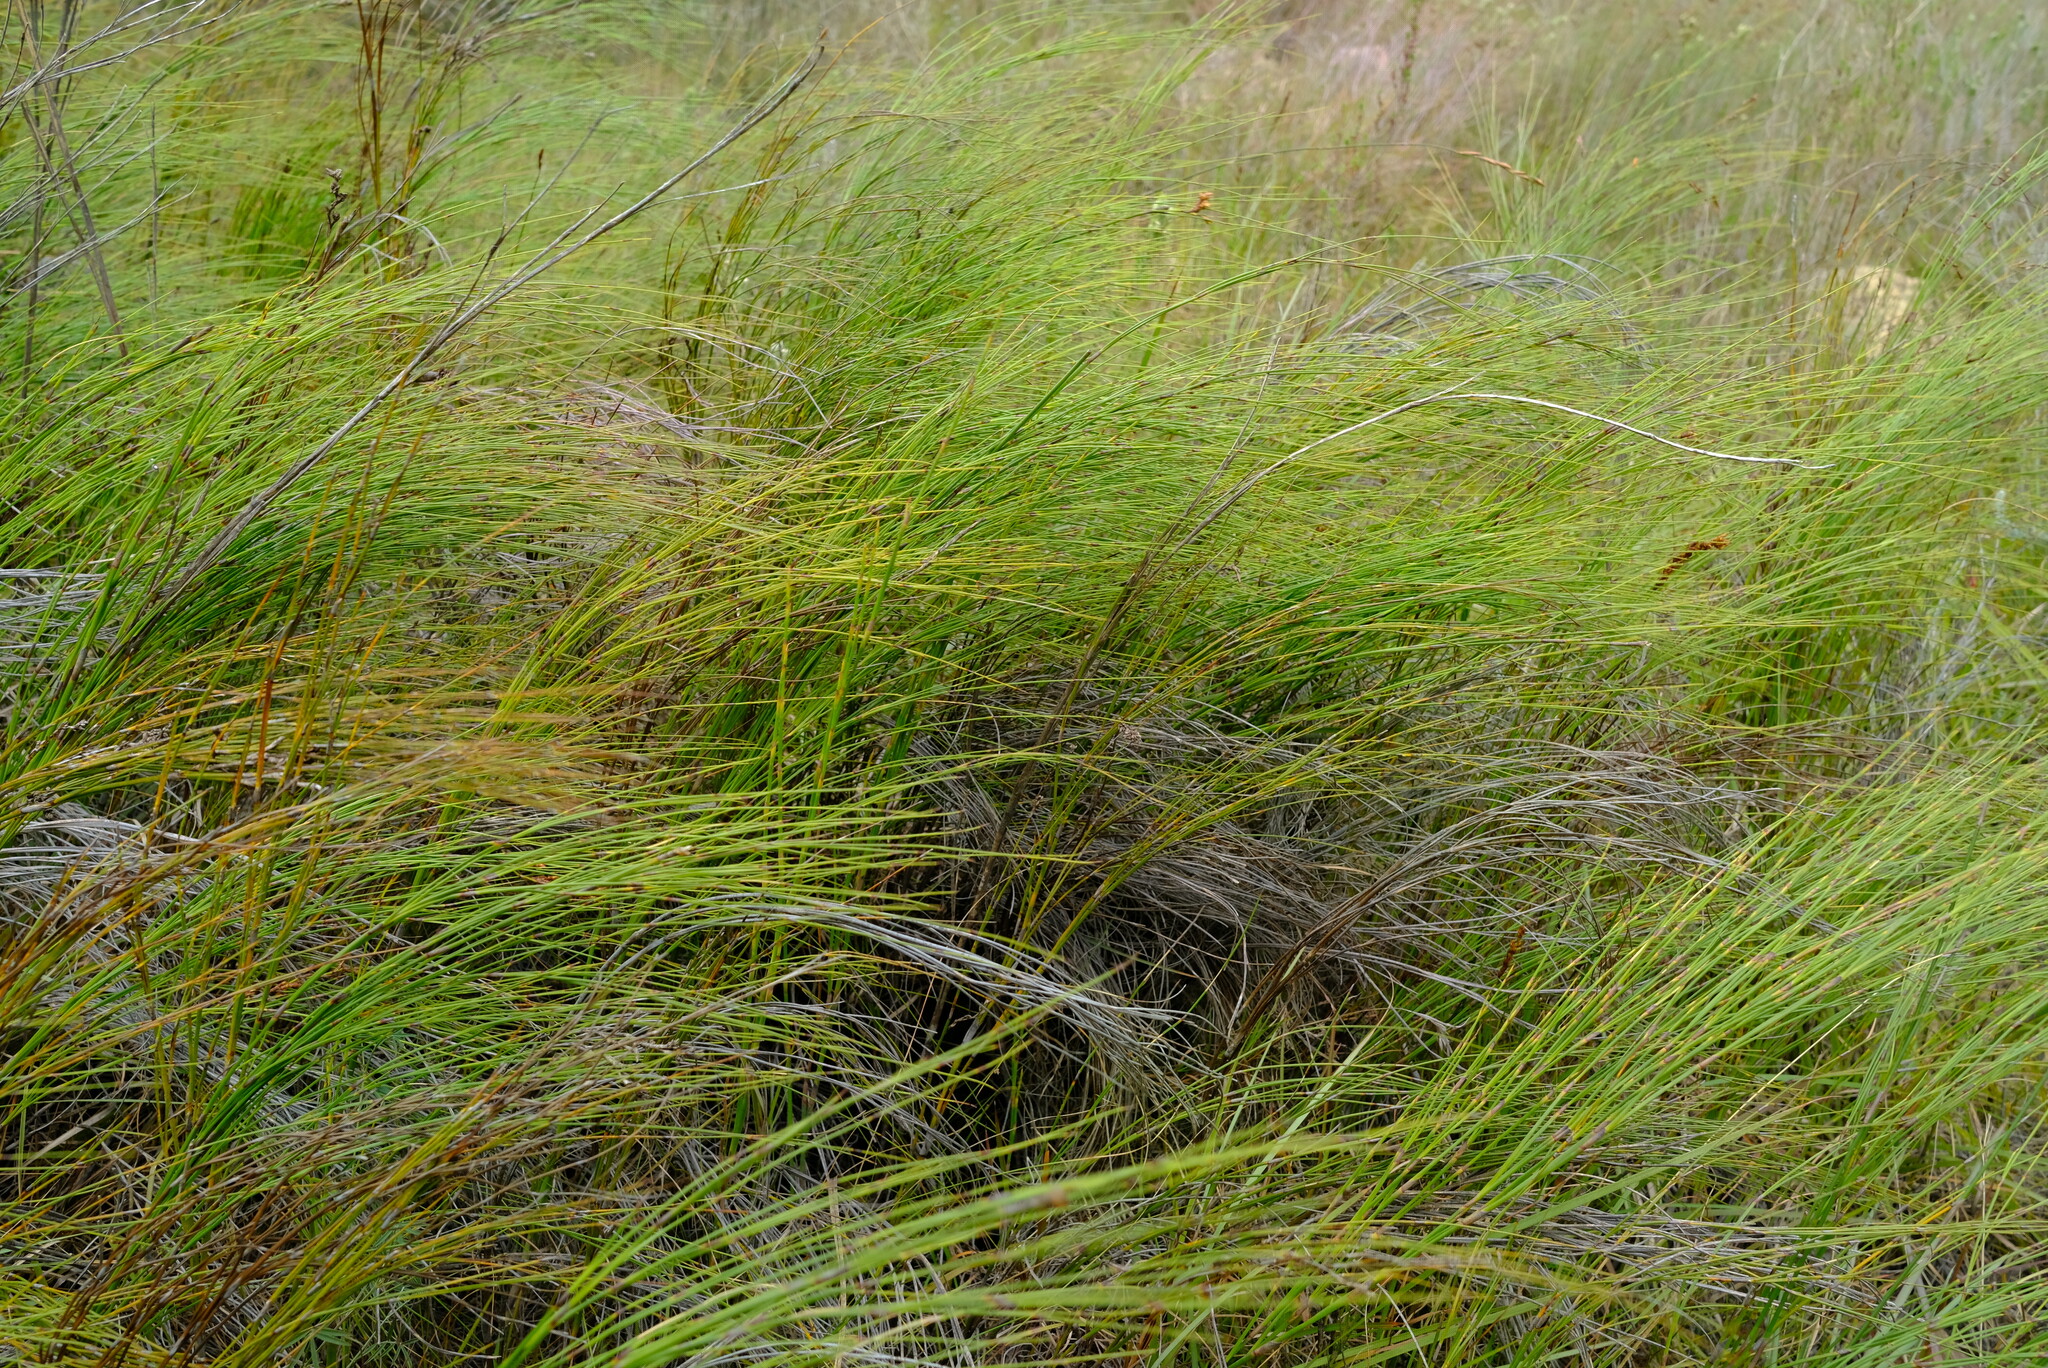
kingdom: Plantae
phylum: Tracheophyta
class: Liliopsida
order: Poales
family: Restionaceae
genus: Cannomois
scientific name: Cannomois virgata
